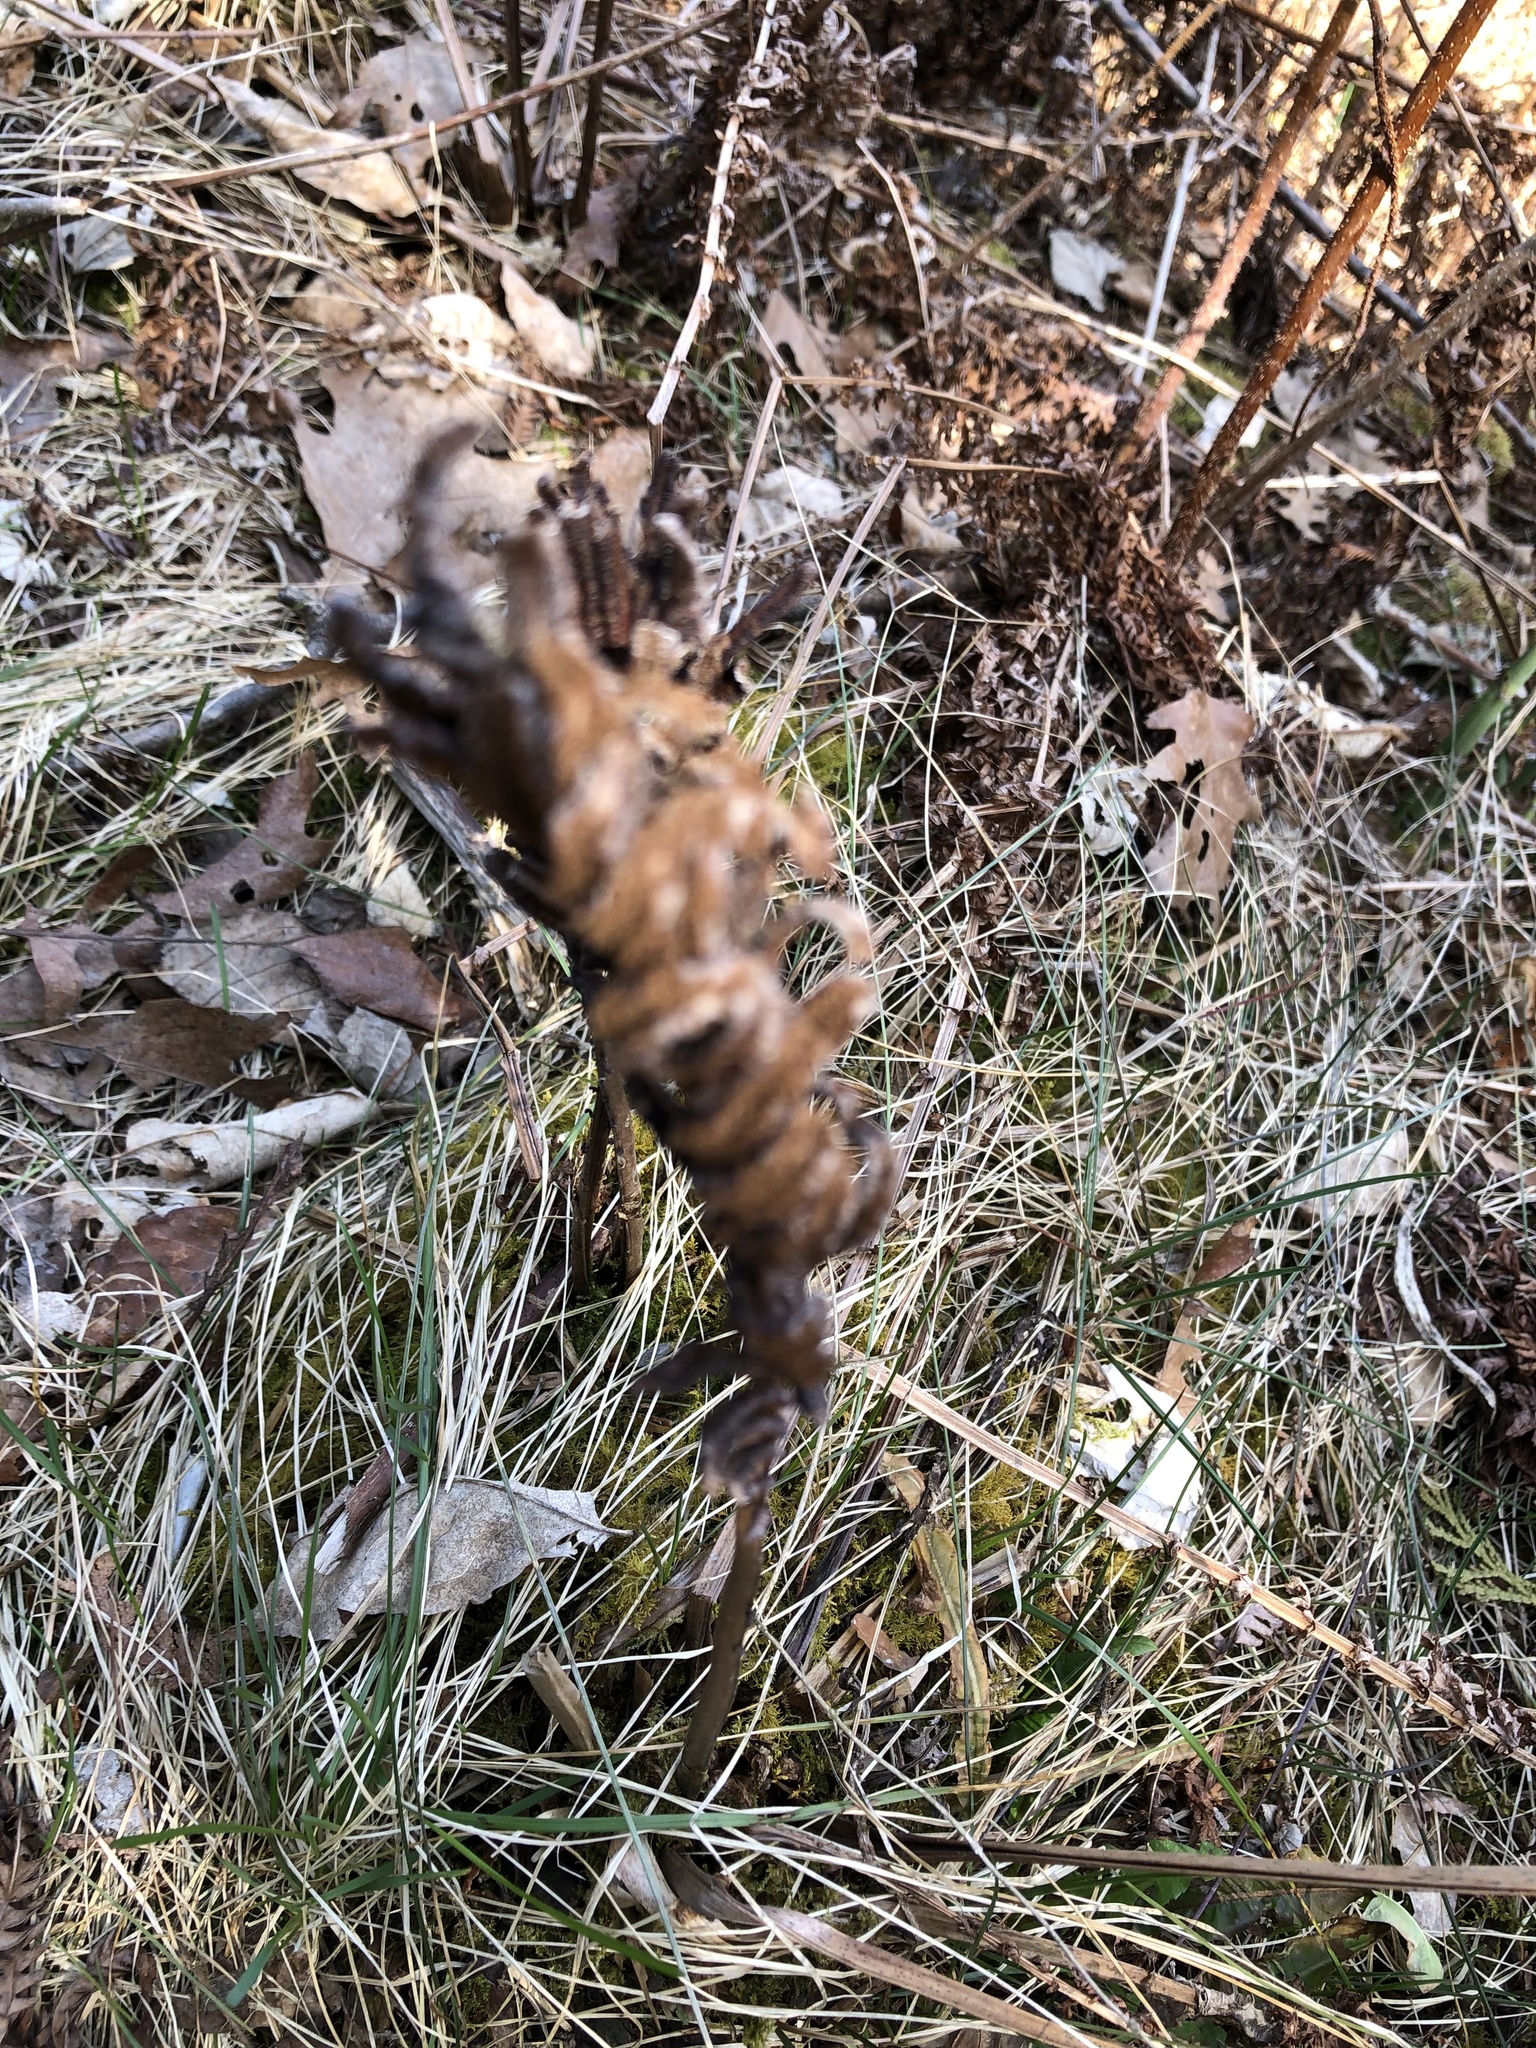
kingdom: Plantae
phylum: Tracheophyta
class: Polypodiopsida
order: Polypodiales
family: Onocleaceae
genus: Matteuccia
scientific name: Matteuccia struthiopteris
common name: Ostrich fern
